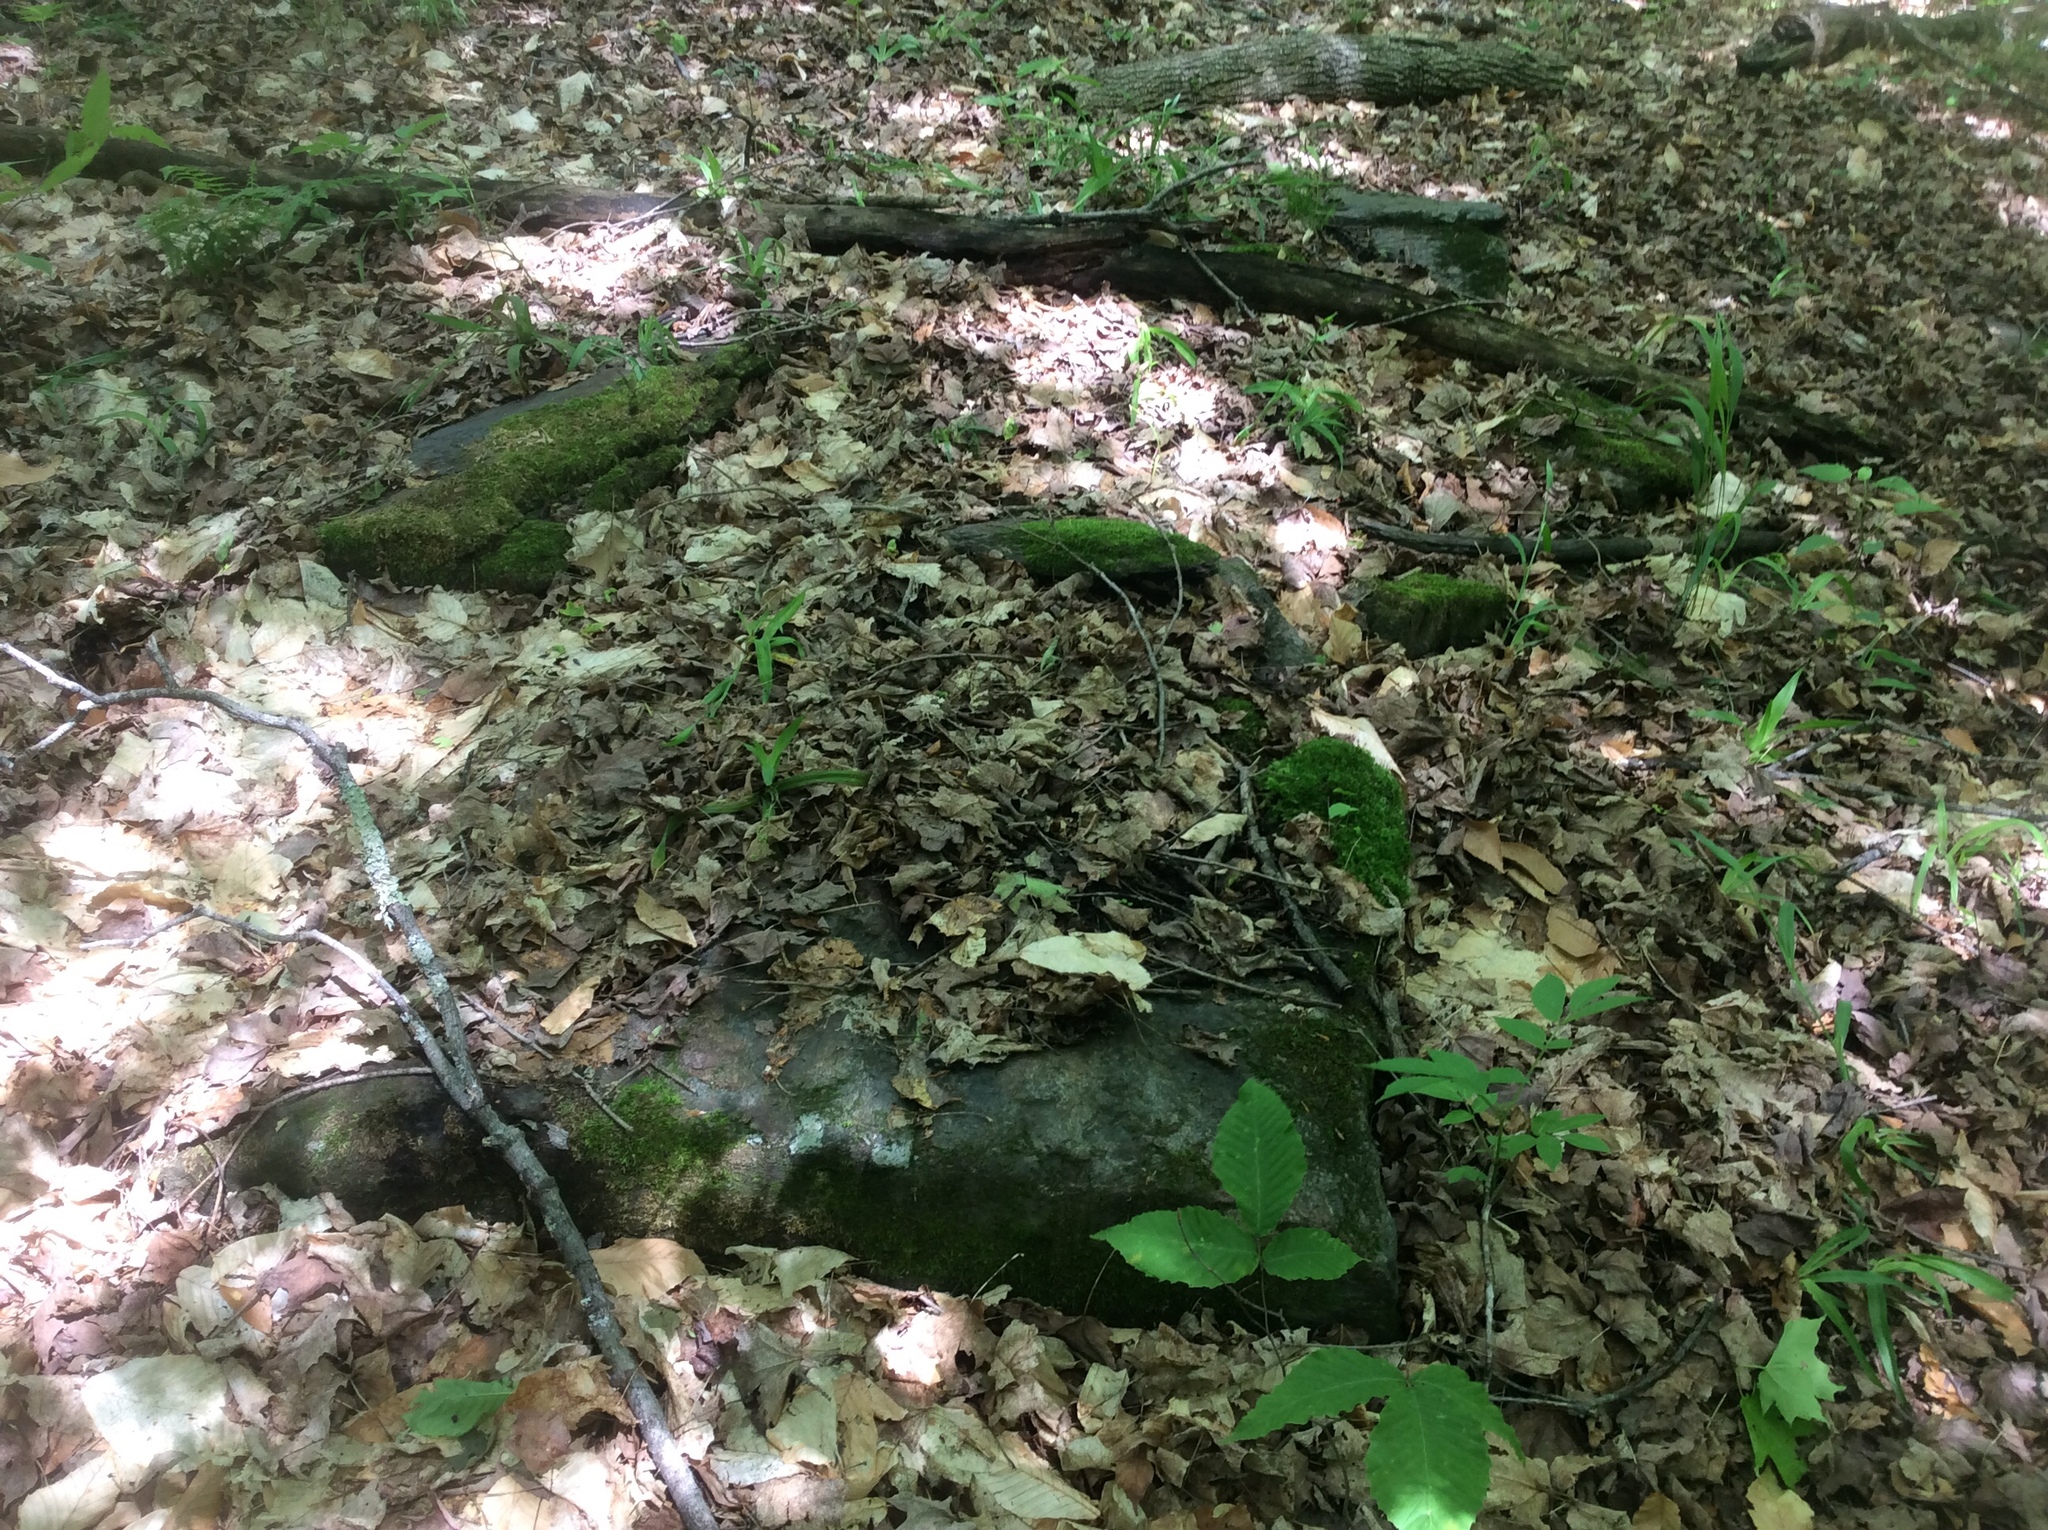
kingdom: Plantae
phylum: Tracheophyta
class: Magnoliopsida
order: Fagales
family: Fagaceae
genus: Fagus
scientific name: Fagus grandifolia
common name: American beech
